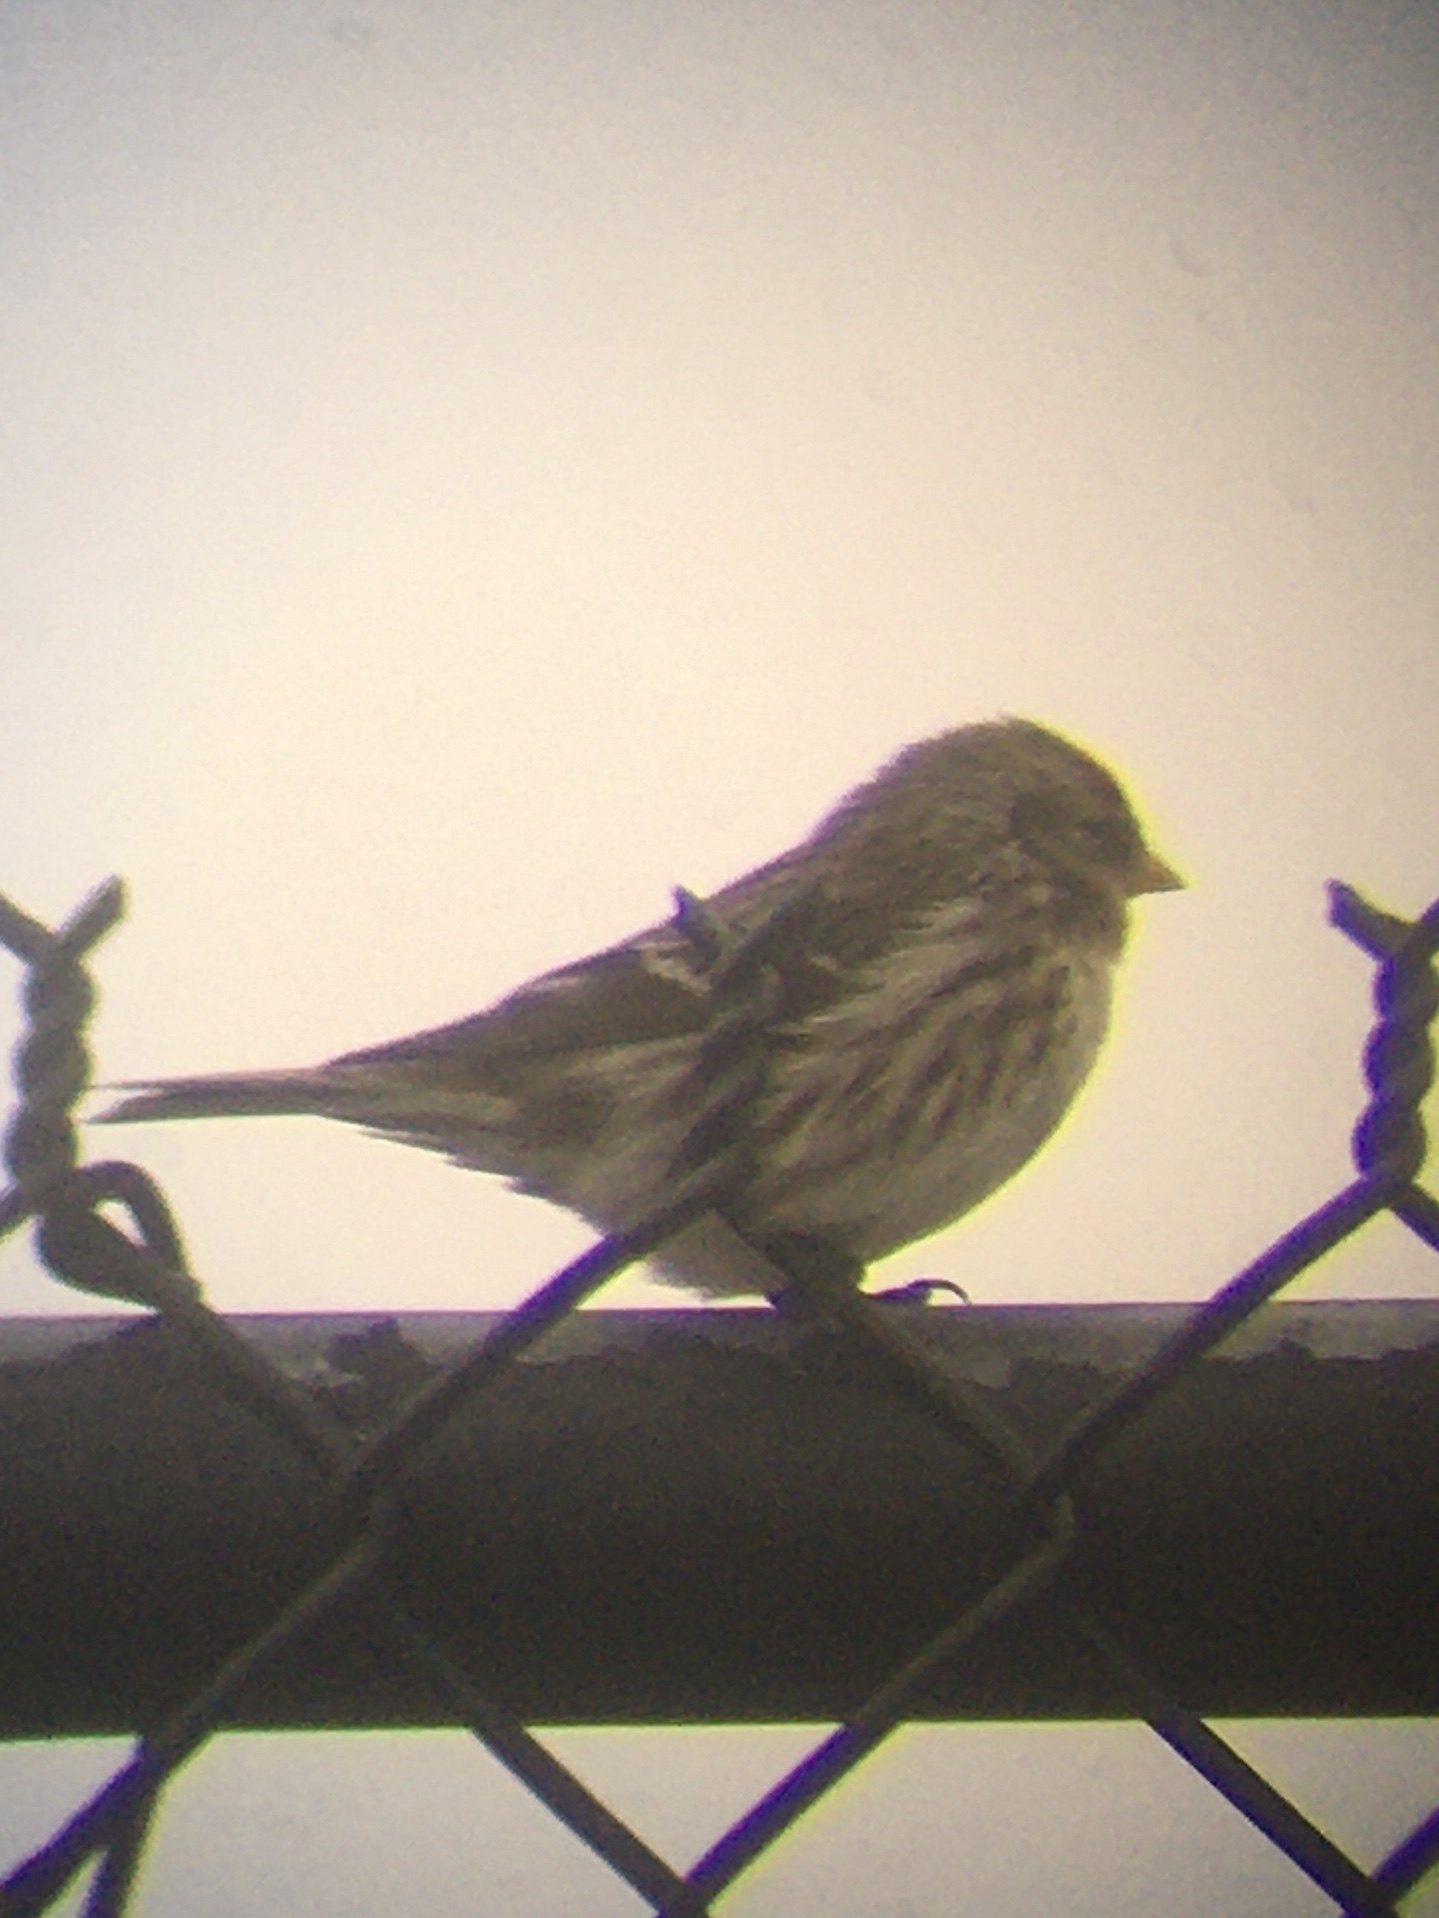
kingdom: Animalia
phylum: Chordata
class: Aves
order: Passeriformes
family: Fringillidae
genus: Acanthis
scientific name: Acanthis flammea
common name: Common redpoll
